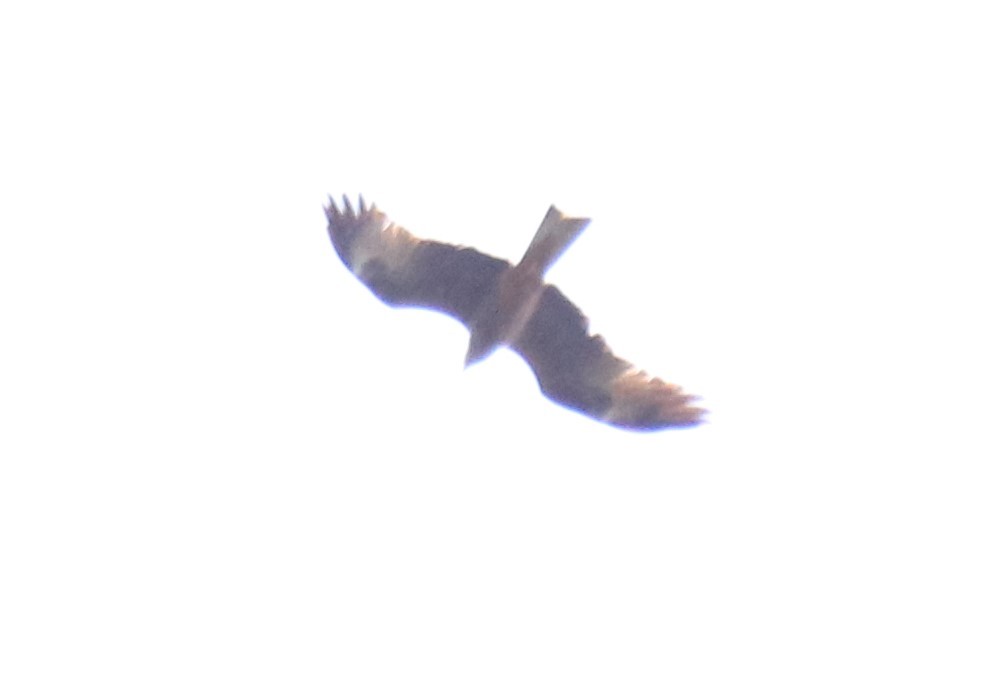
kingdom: Animalia
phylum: Chordata
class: Aves
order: Accipitriformes
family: Accipitridae
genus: Milvus
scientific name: Milvus migrans
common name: Black kite
